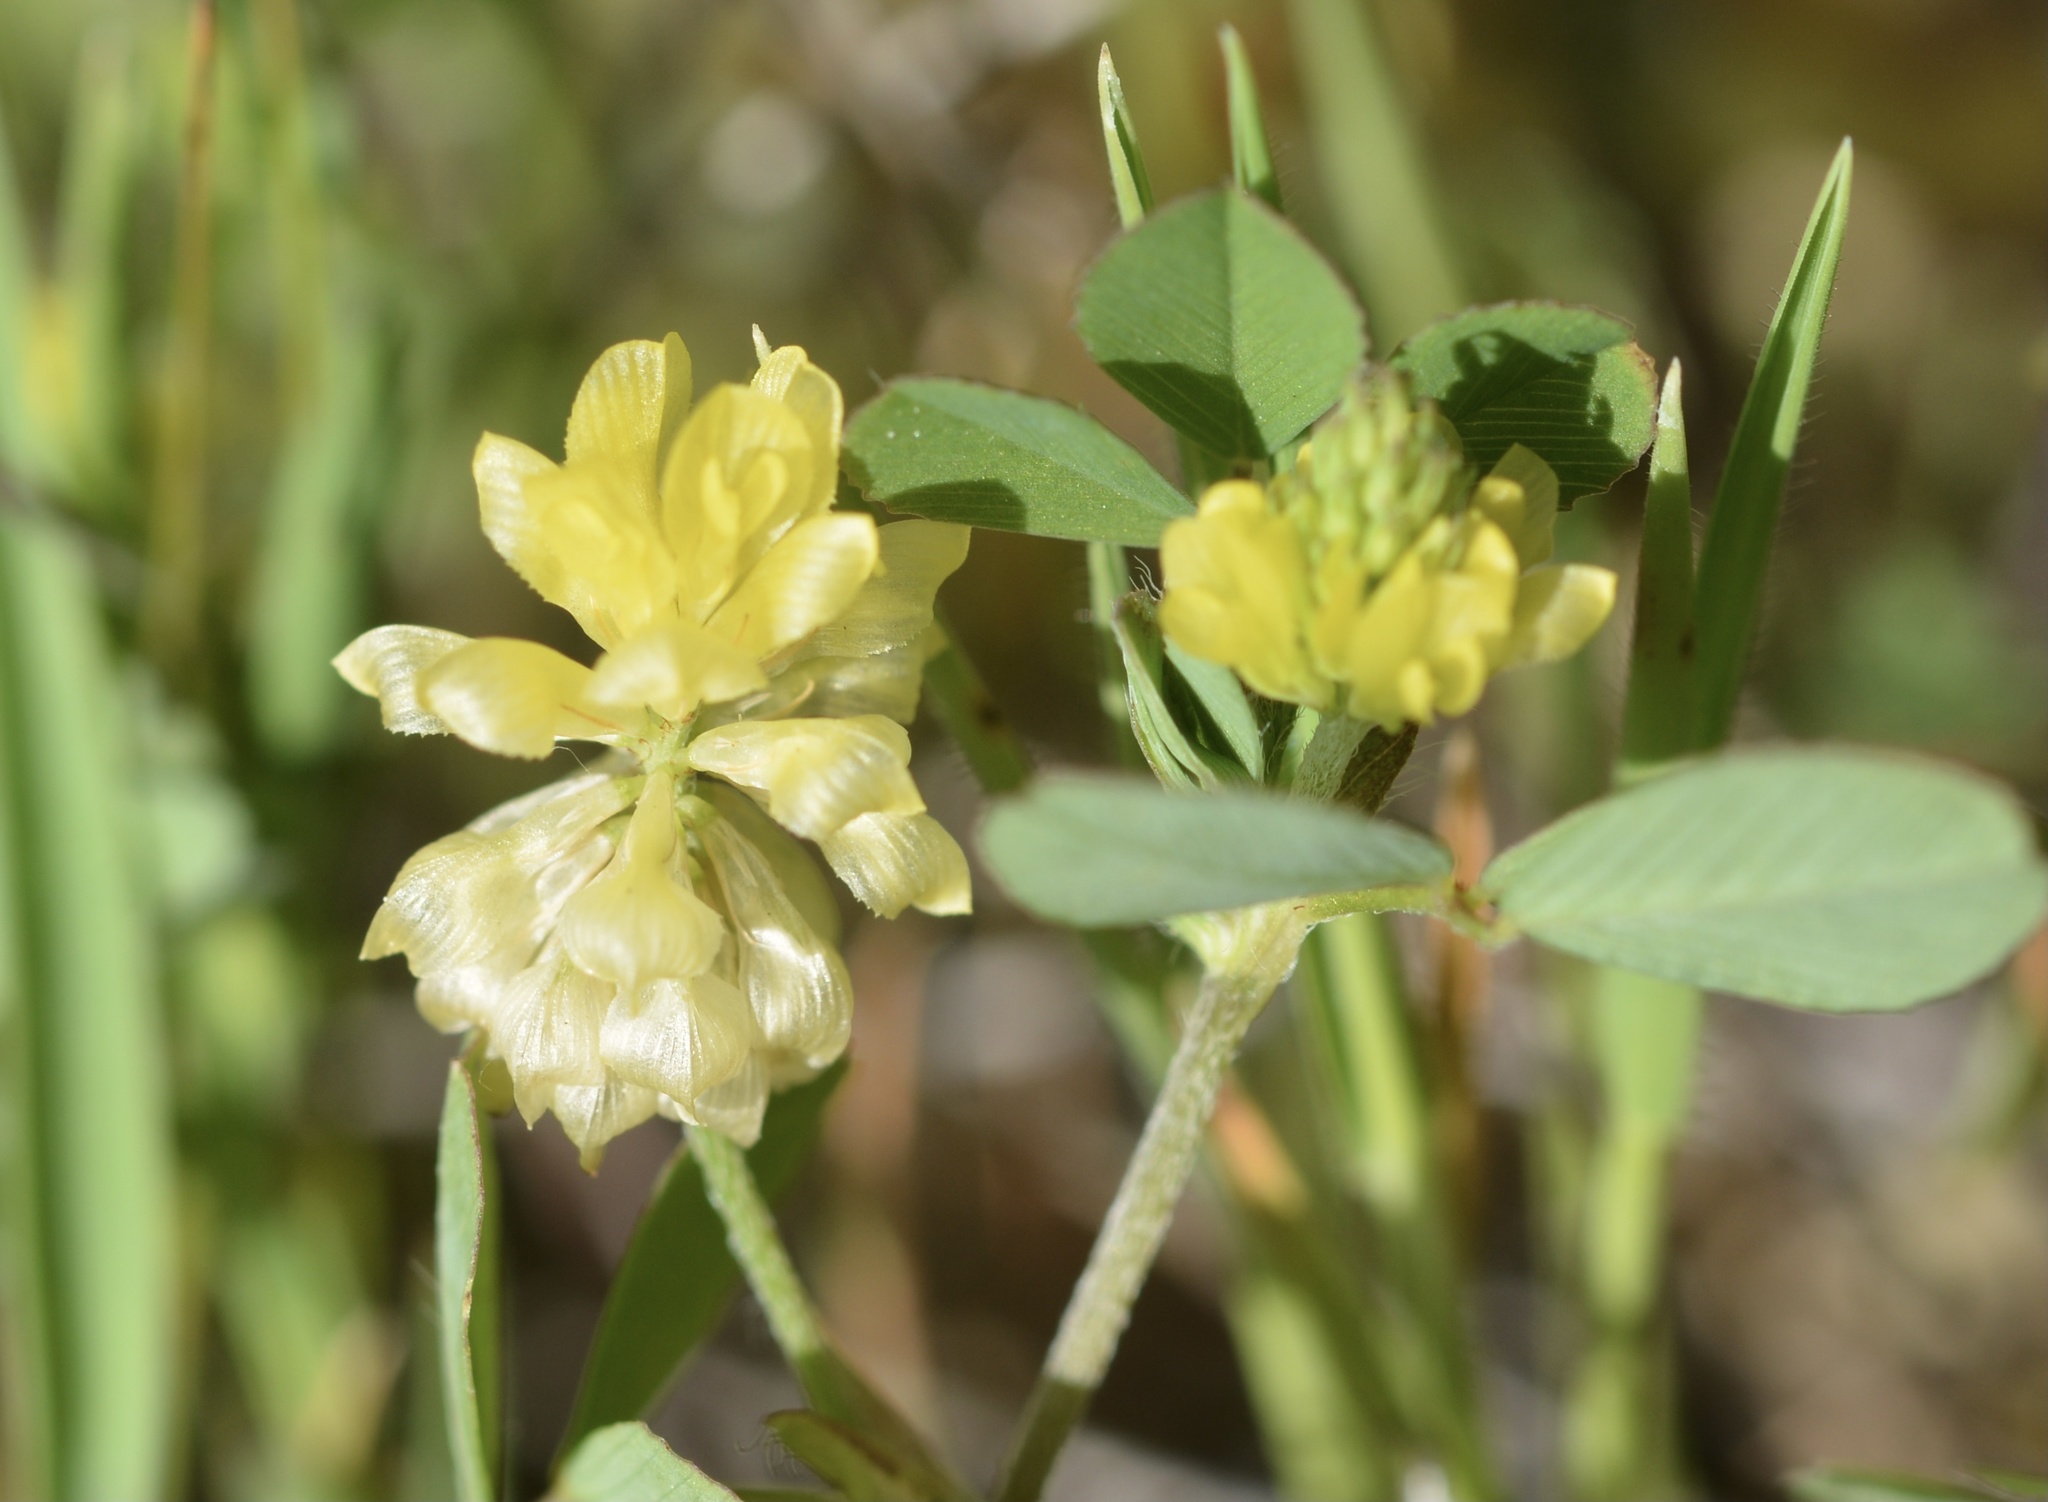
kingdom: Plantae
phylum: Tracheophyta
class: Magnoliopsida
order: Fabales
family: Fabaceae
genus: Trifolium
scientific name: Trifolium campestre
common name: Field clover
